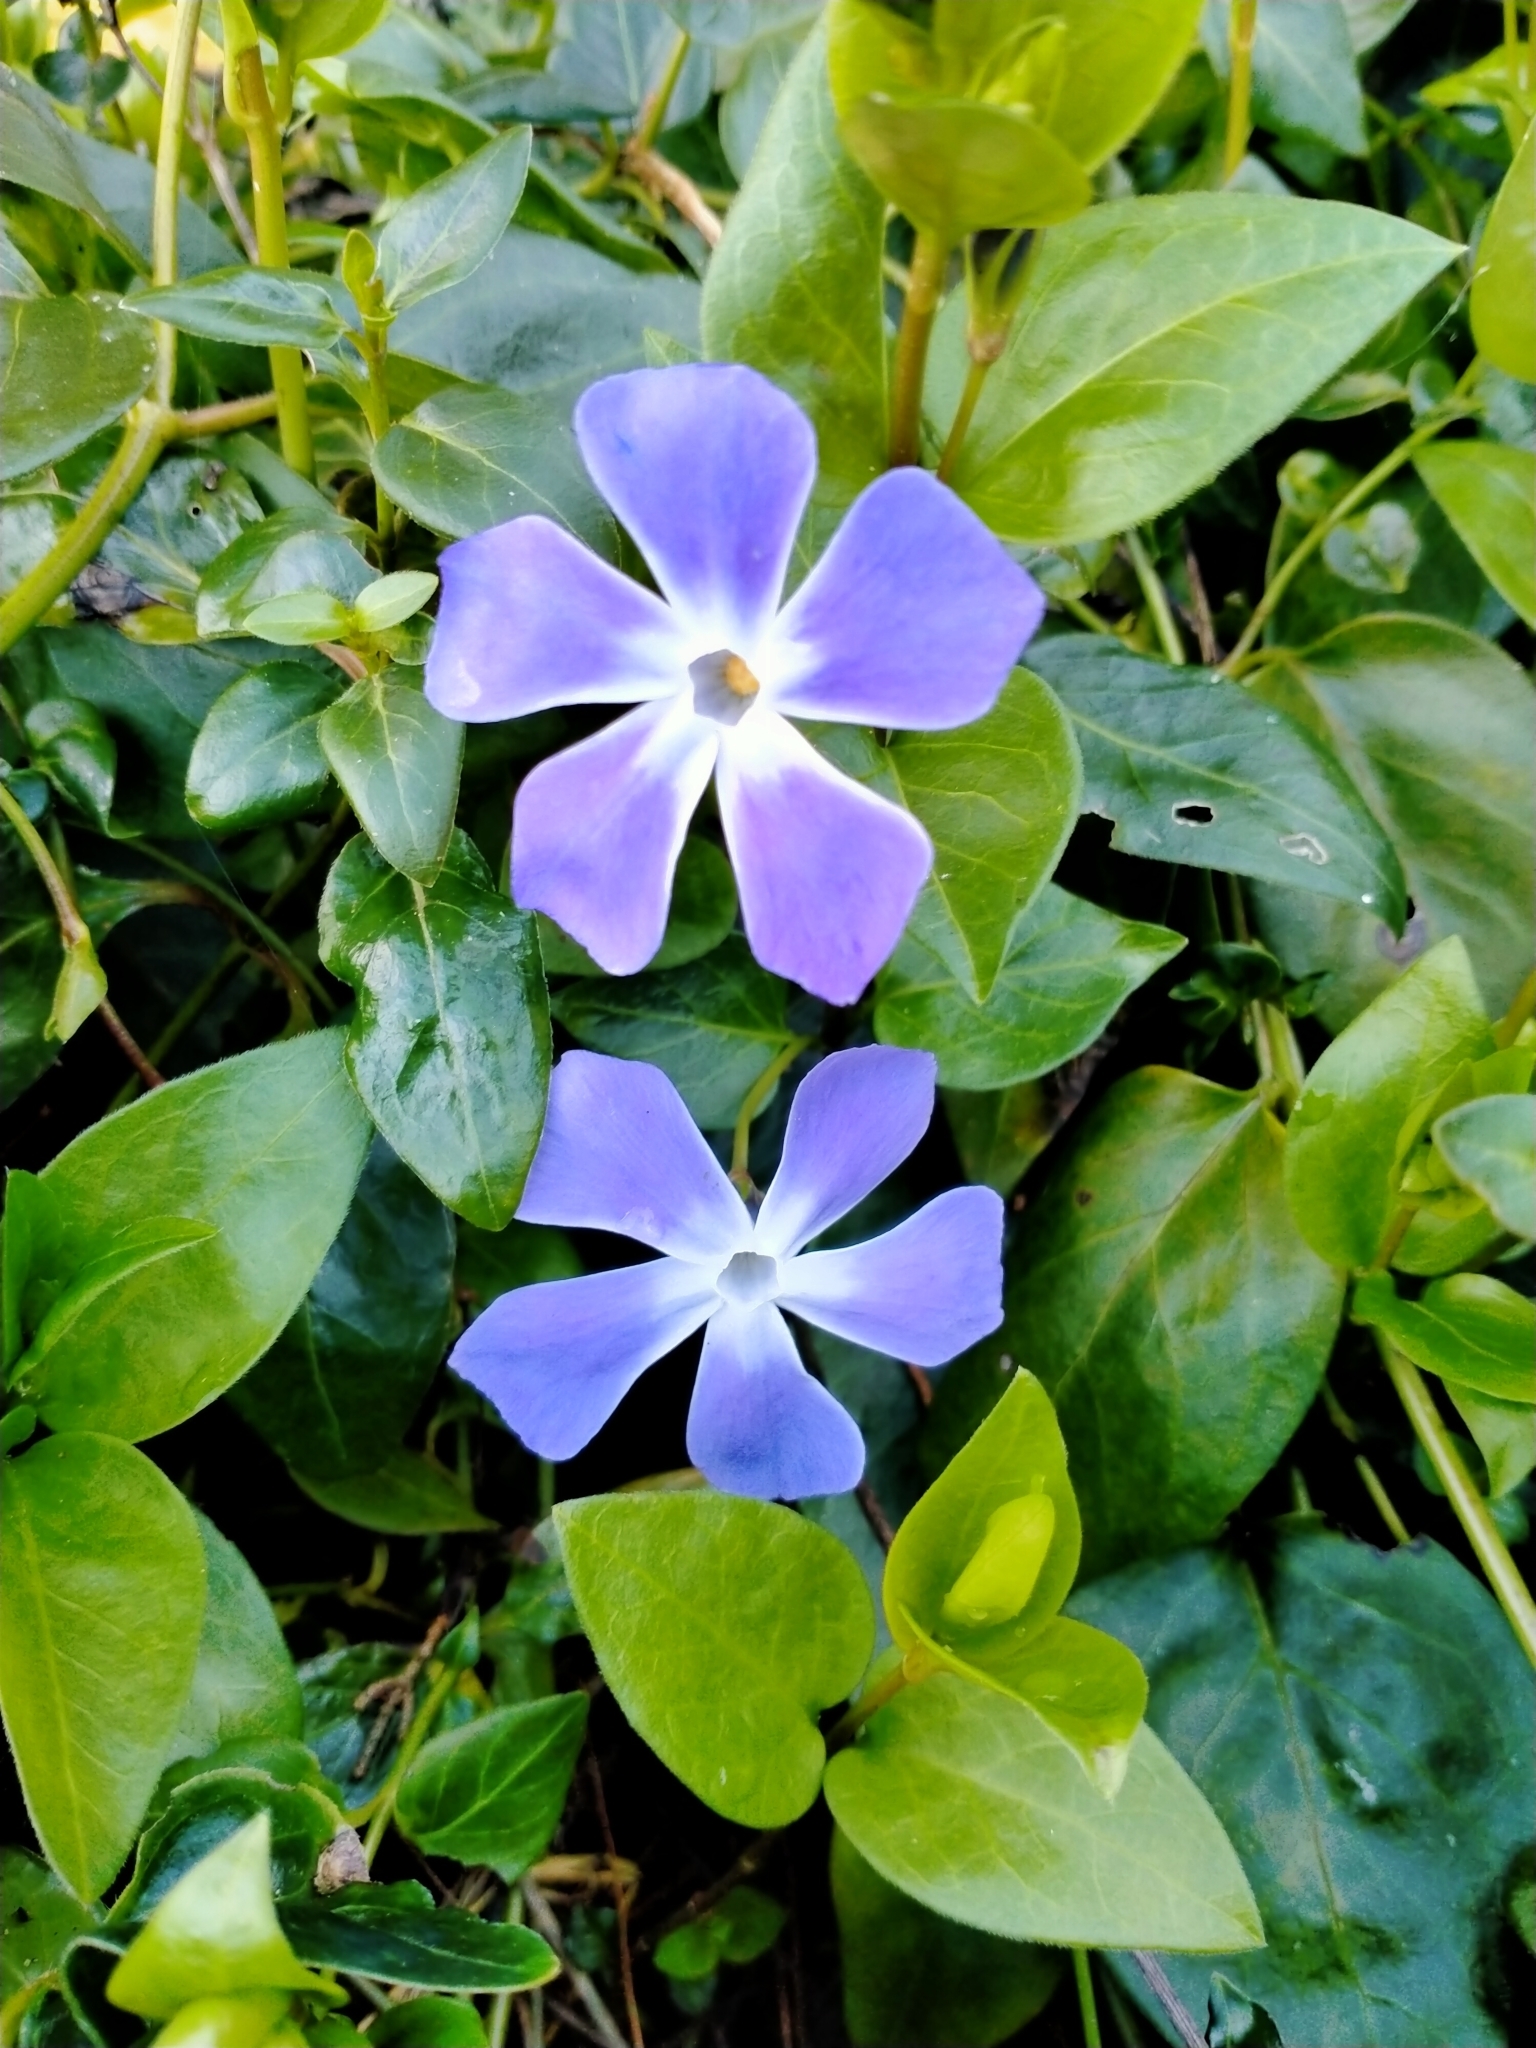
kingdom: Plantae
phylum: Tracheophyta
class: Magnoliopsida
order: Gentianales
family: Apocynaceae
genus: Vinca
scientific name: Vinca major
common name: Greater periwinkle
